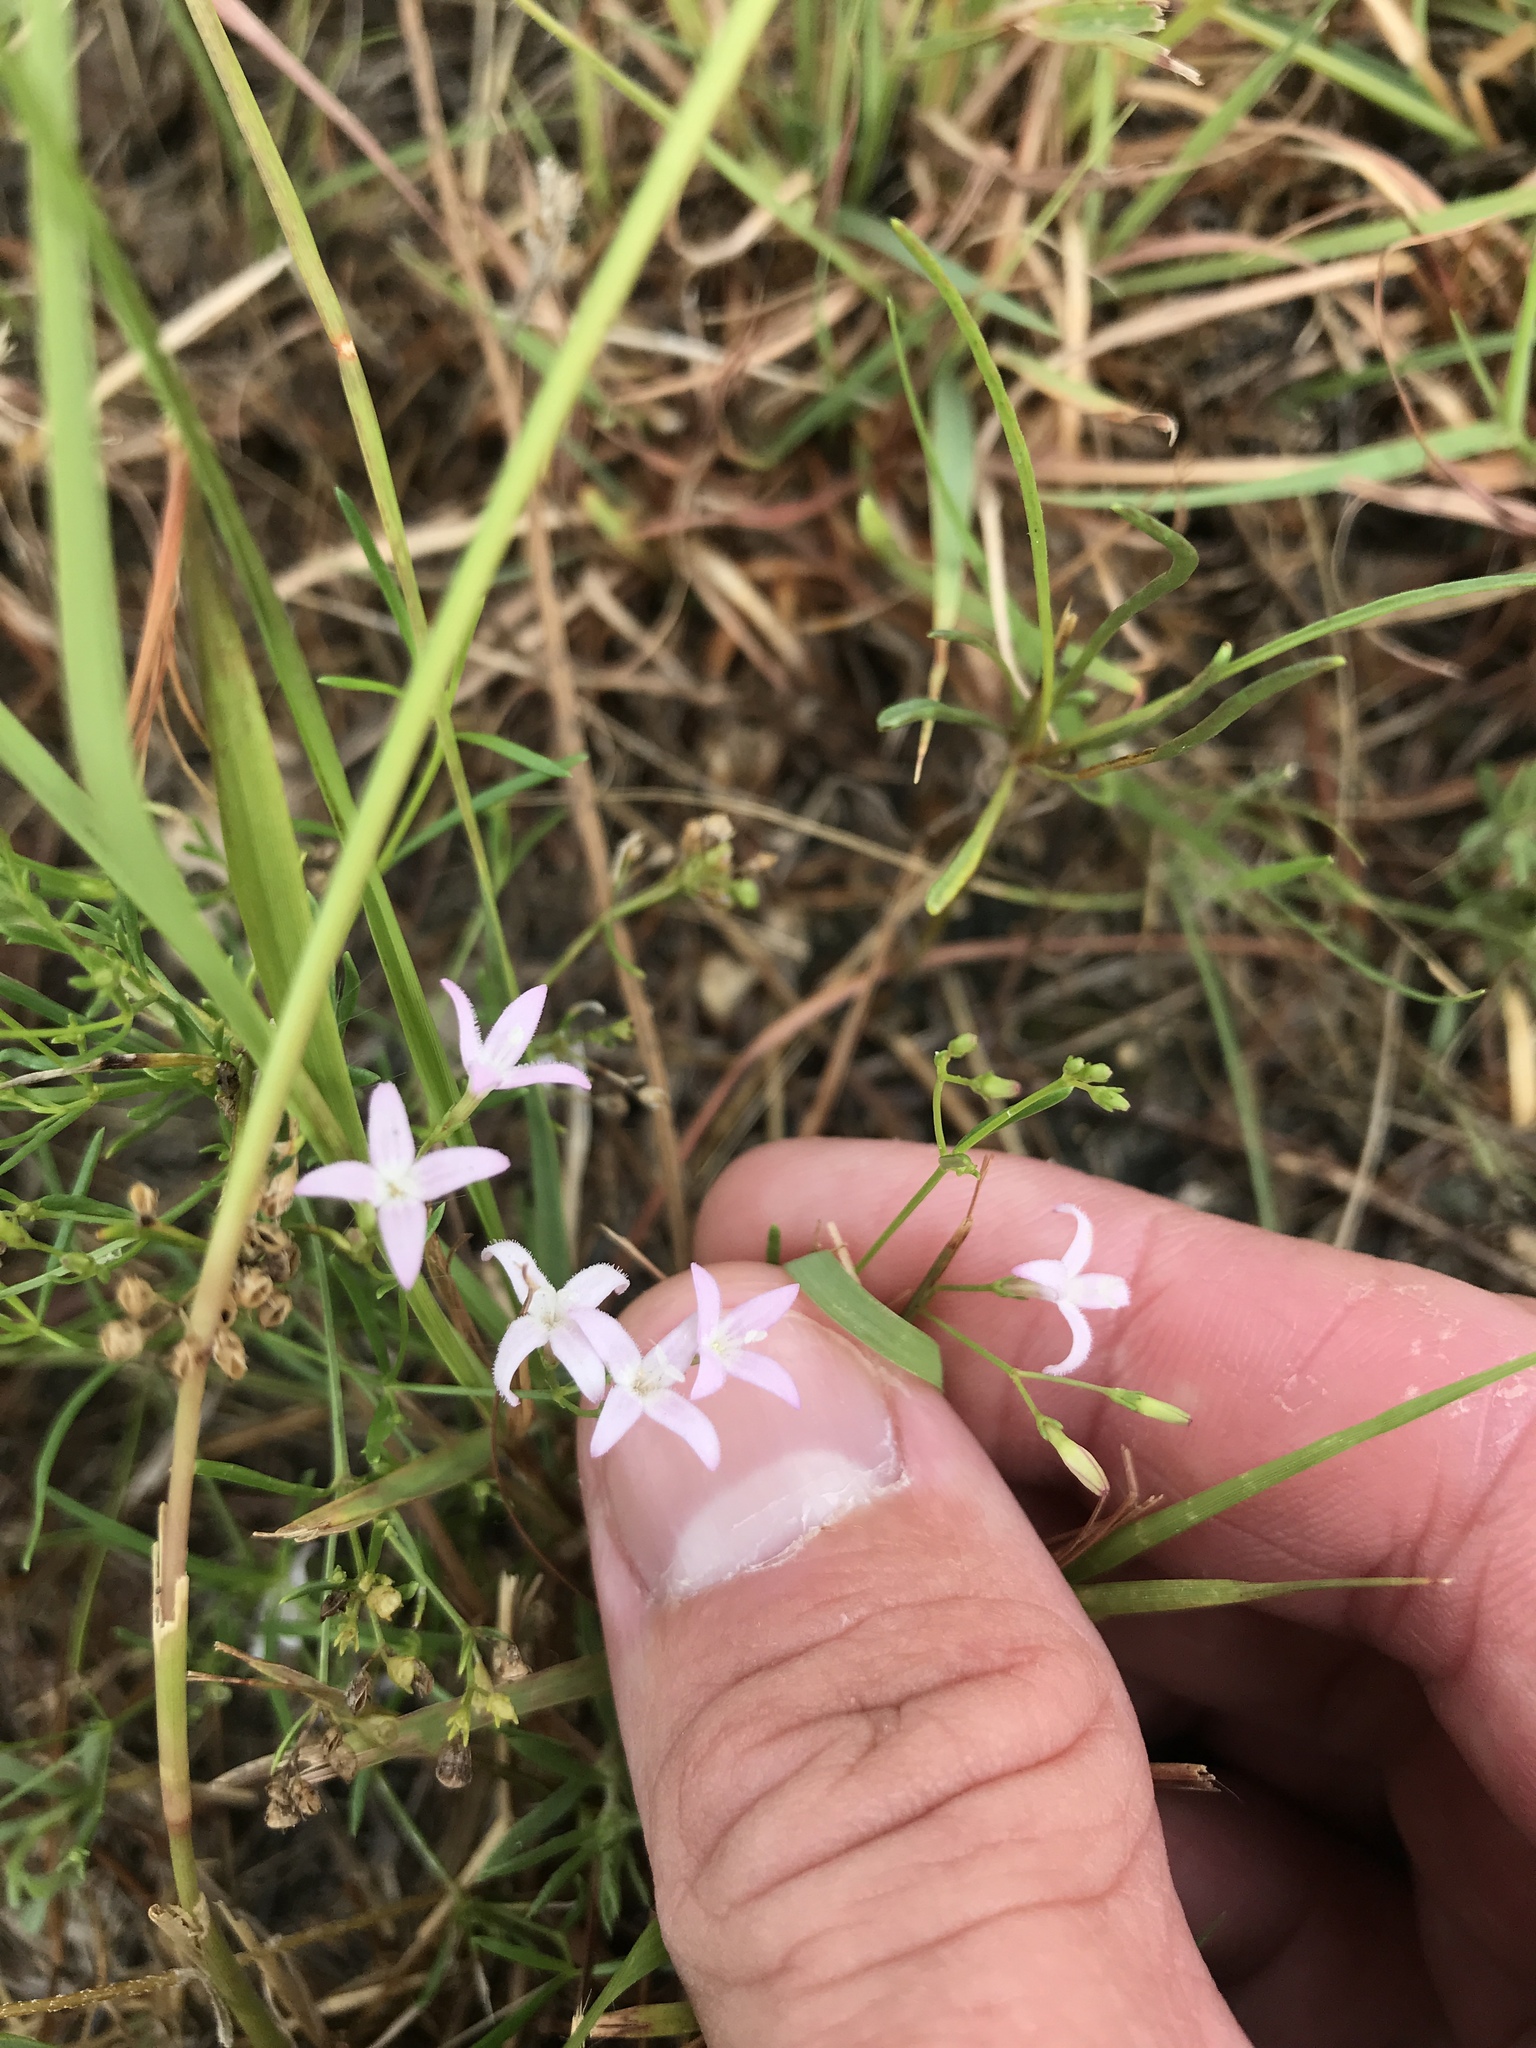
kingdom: Plantae
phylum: Tracheophyta
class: Magnoliopsida
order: Gentianales
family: Rubiaceae
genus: Stenaria
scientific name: Stenaria nigricans
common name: Diamondflowers
